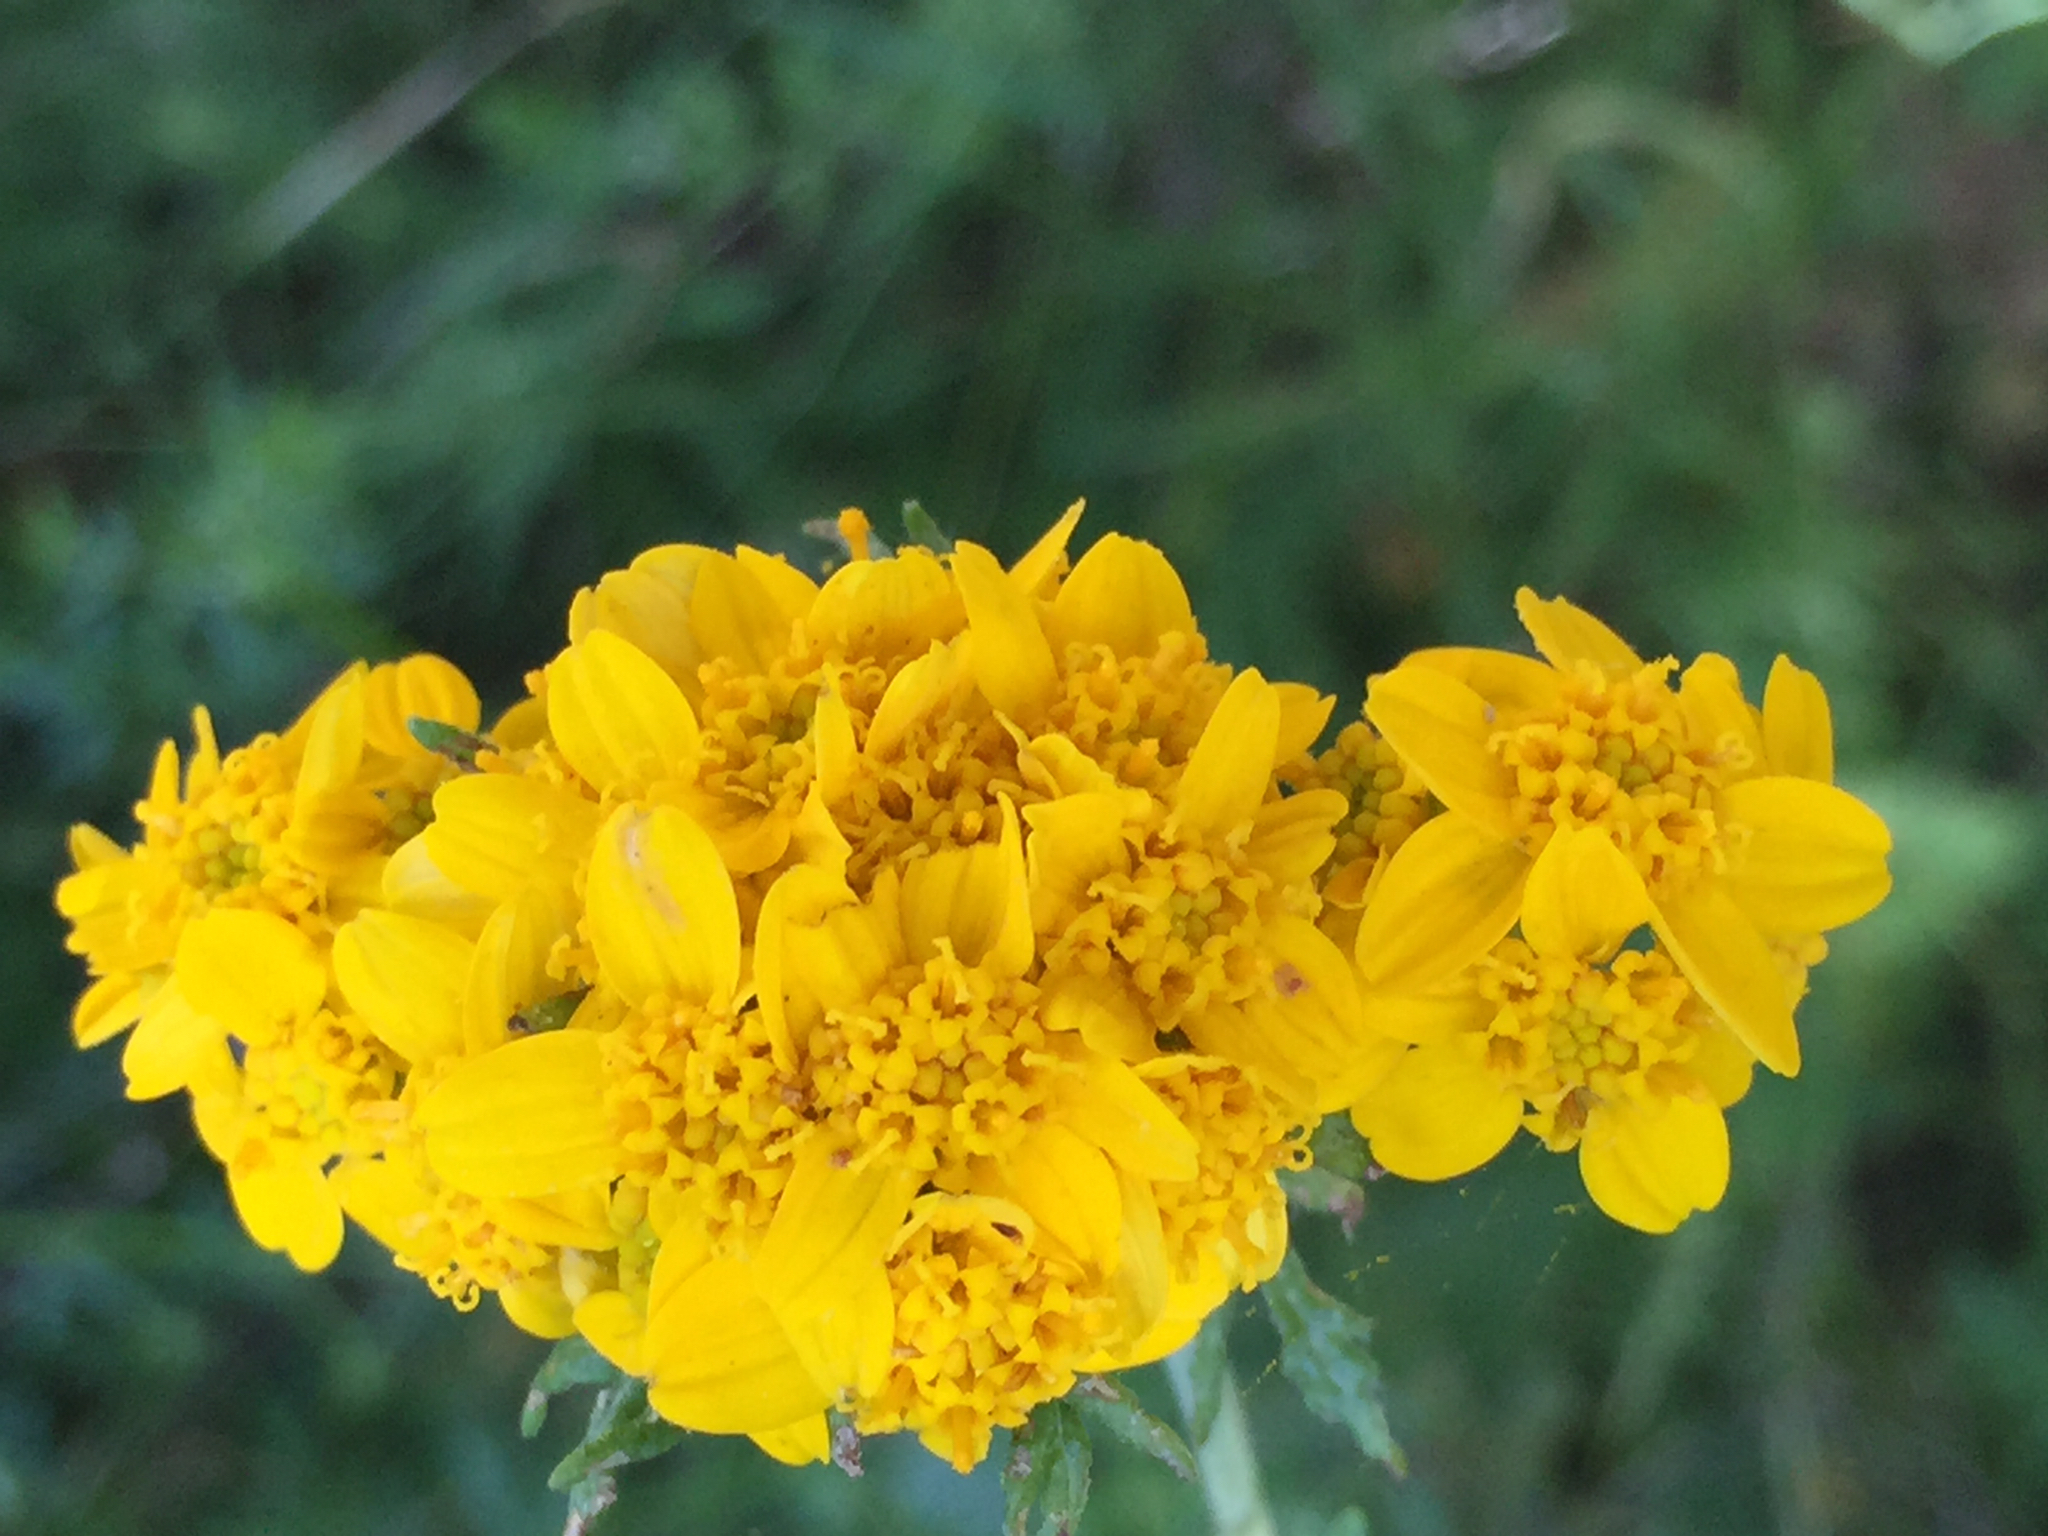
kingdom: Plantae
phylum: Tracheophyta
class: Magnoliopsida
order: Asterales
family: Asteraceae
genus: Eriophyllum
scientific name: Eriophyllum confertiflorum
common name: Golden-yarrow
